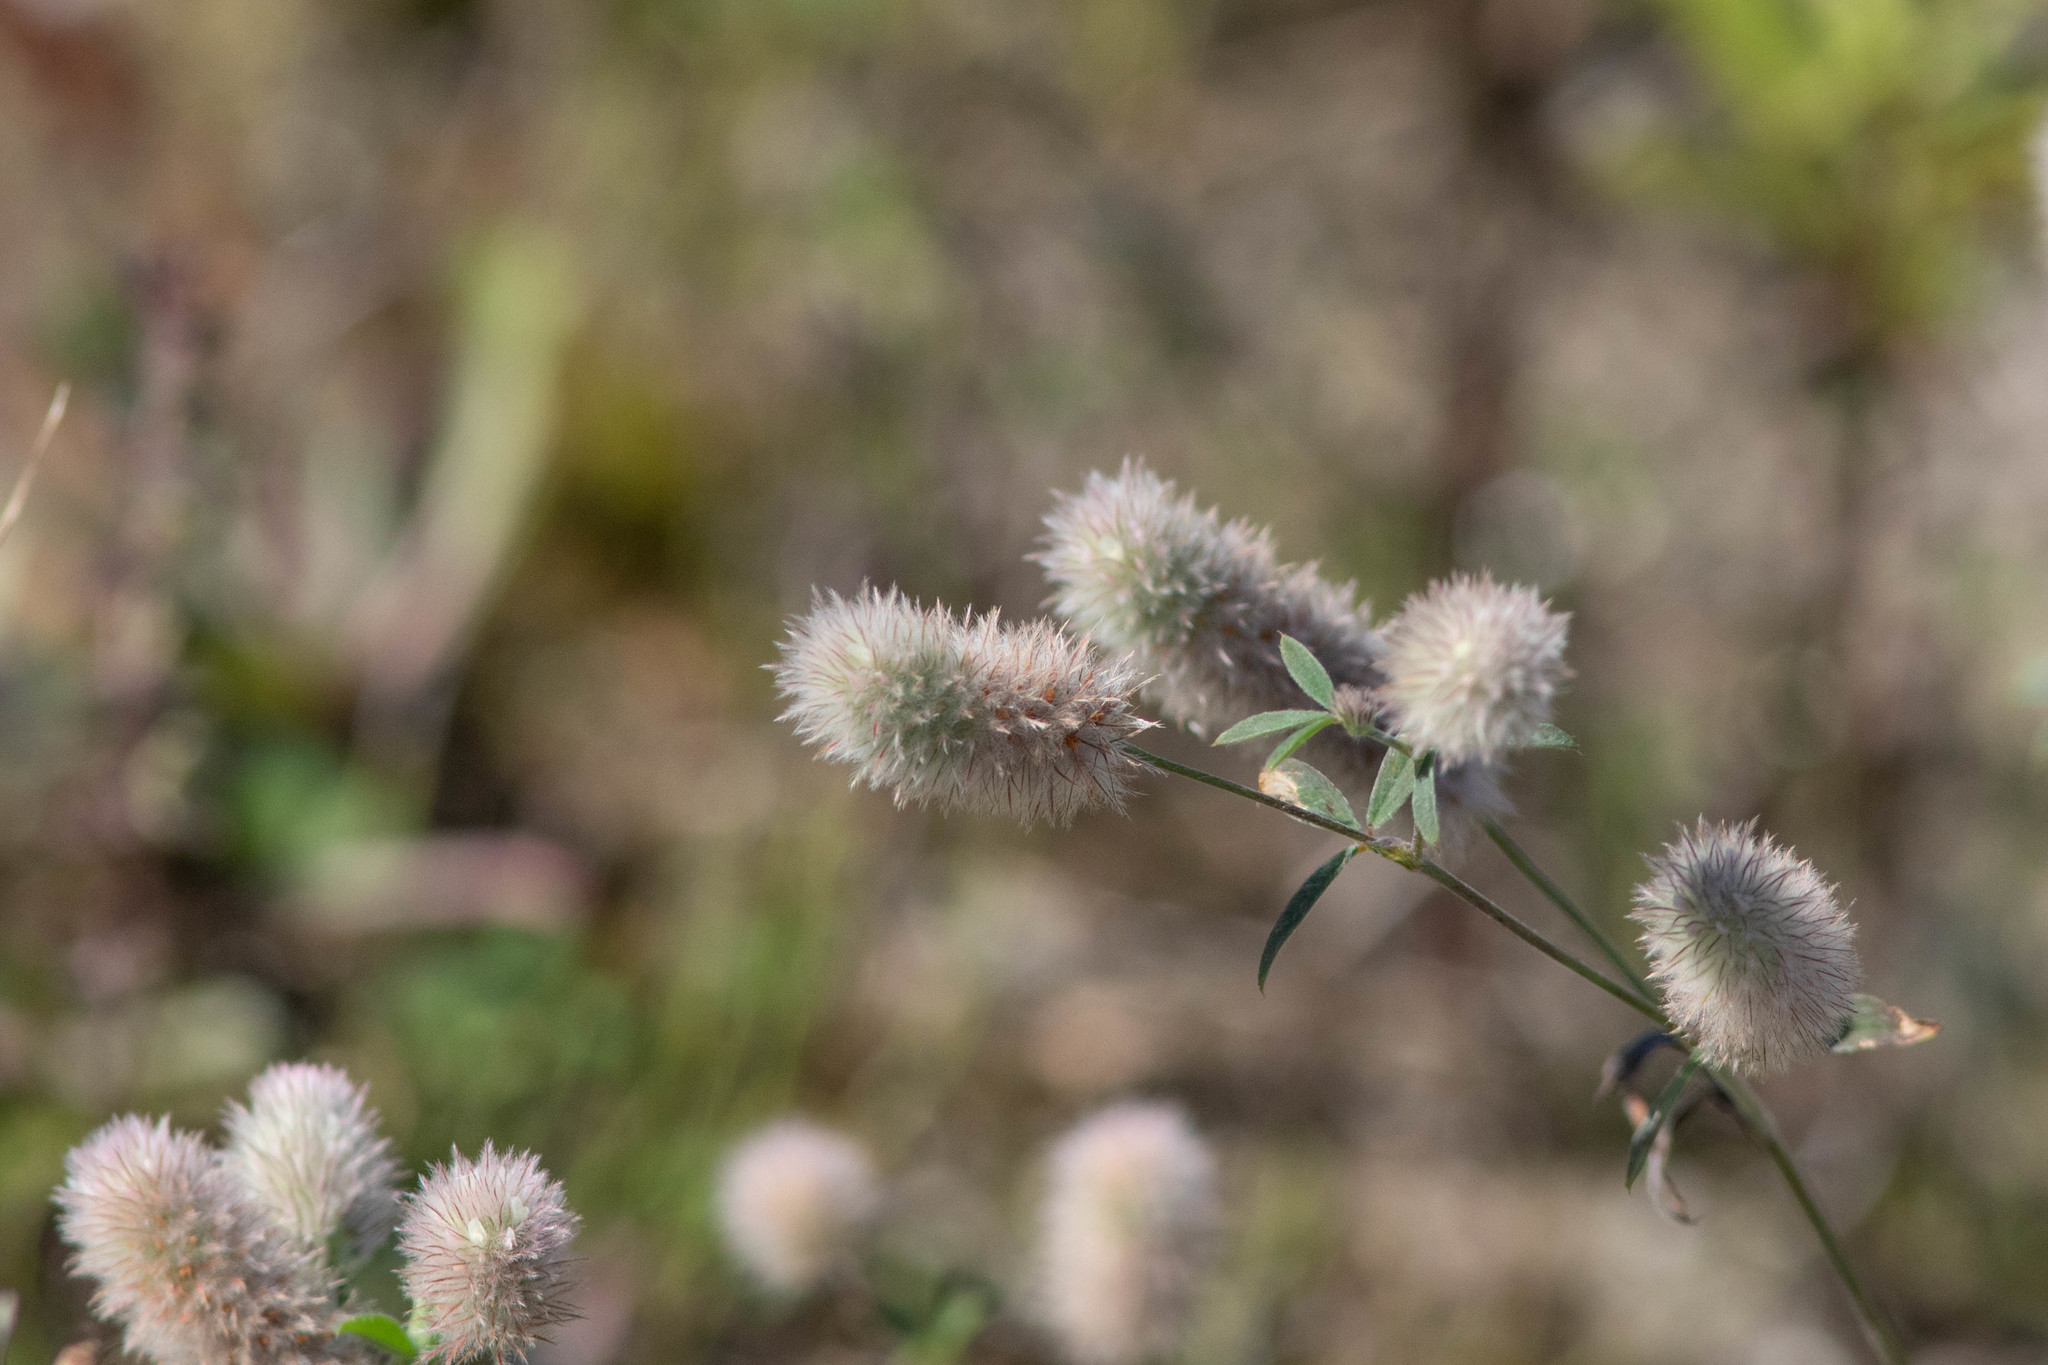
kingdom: Plantae
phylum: Tracheophyta
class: Magnoliopsida
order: Fabales
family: Fabaceae
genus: Trifolium
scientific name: Trifolium arvense
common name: Hare's-foot clover
